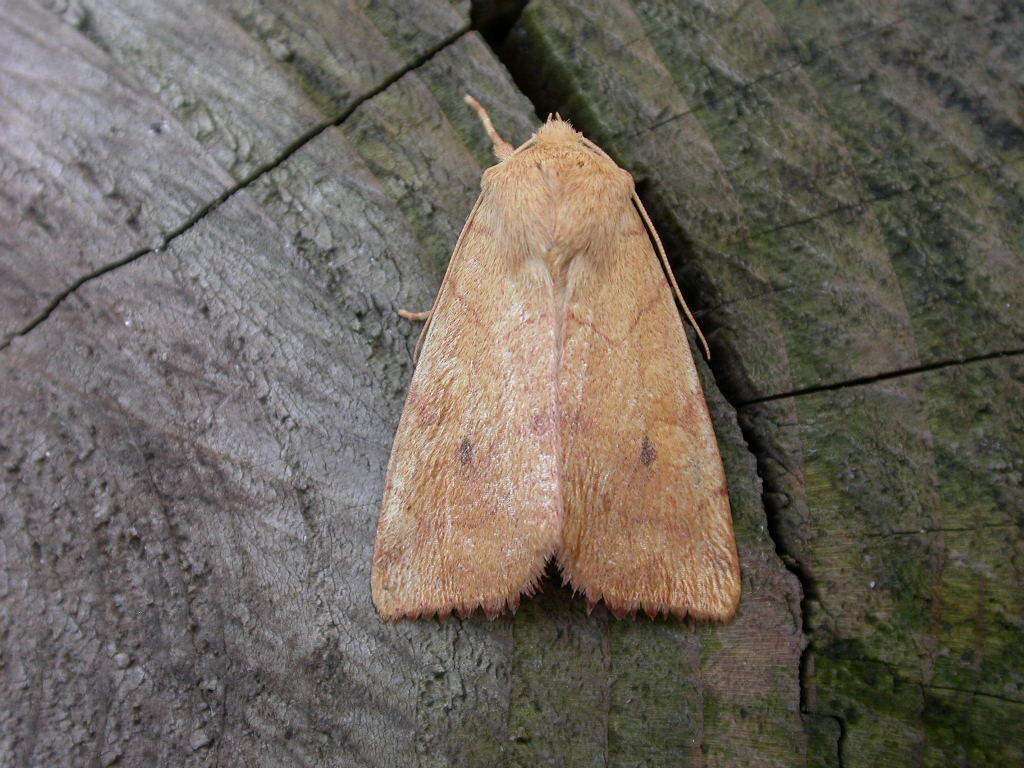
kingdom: Animalia
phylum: Arthropoda
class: Insecta
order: Lepidoptera
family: Noctuidae
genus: Enargia
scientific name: Enargia paleacea
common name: Angle-striped sallow
